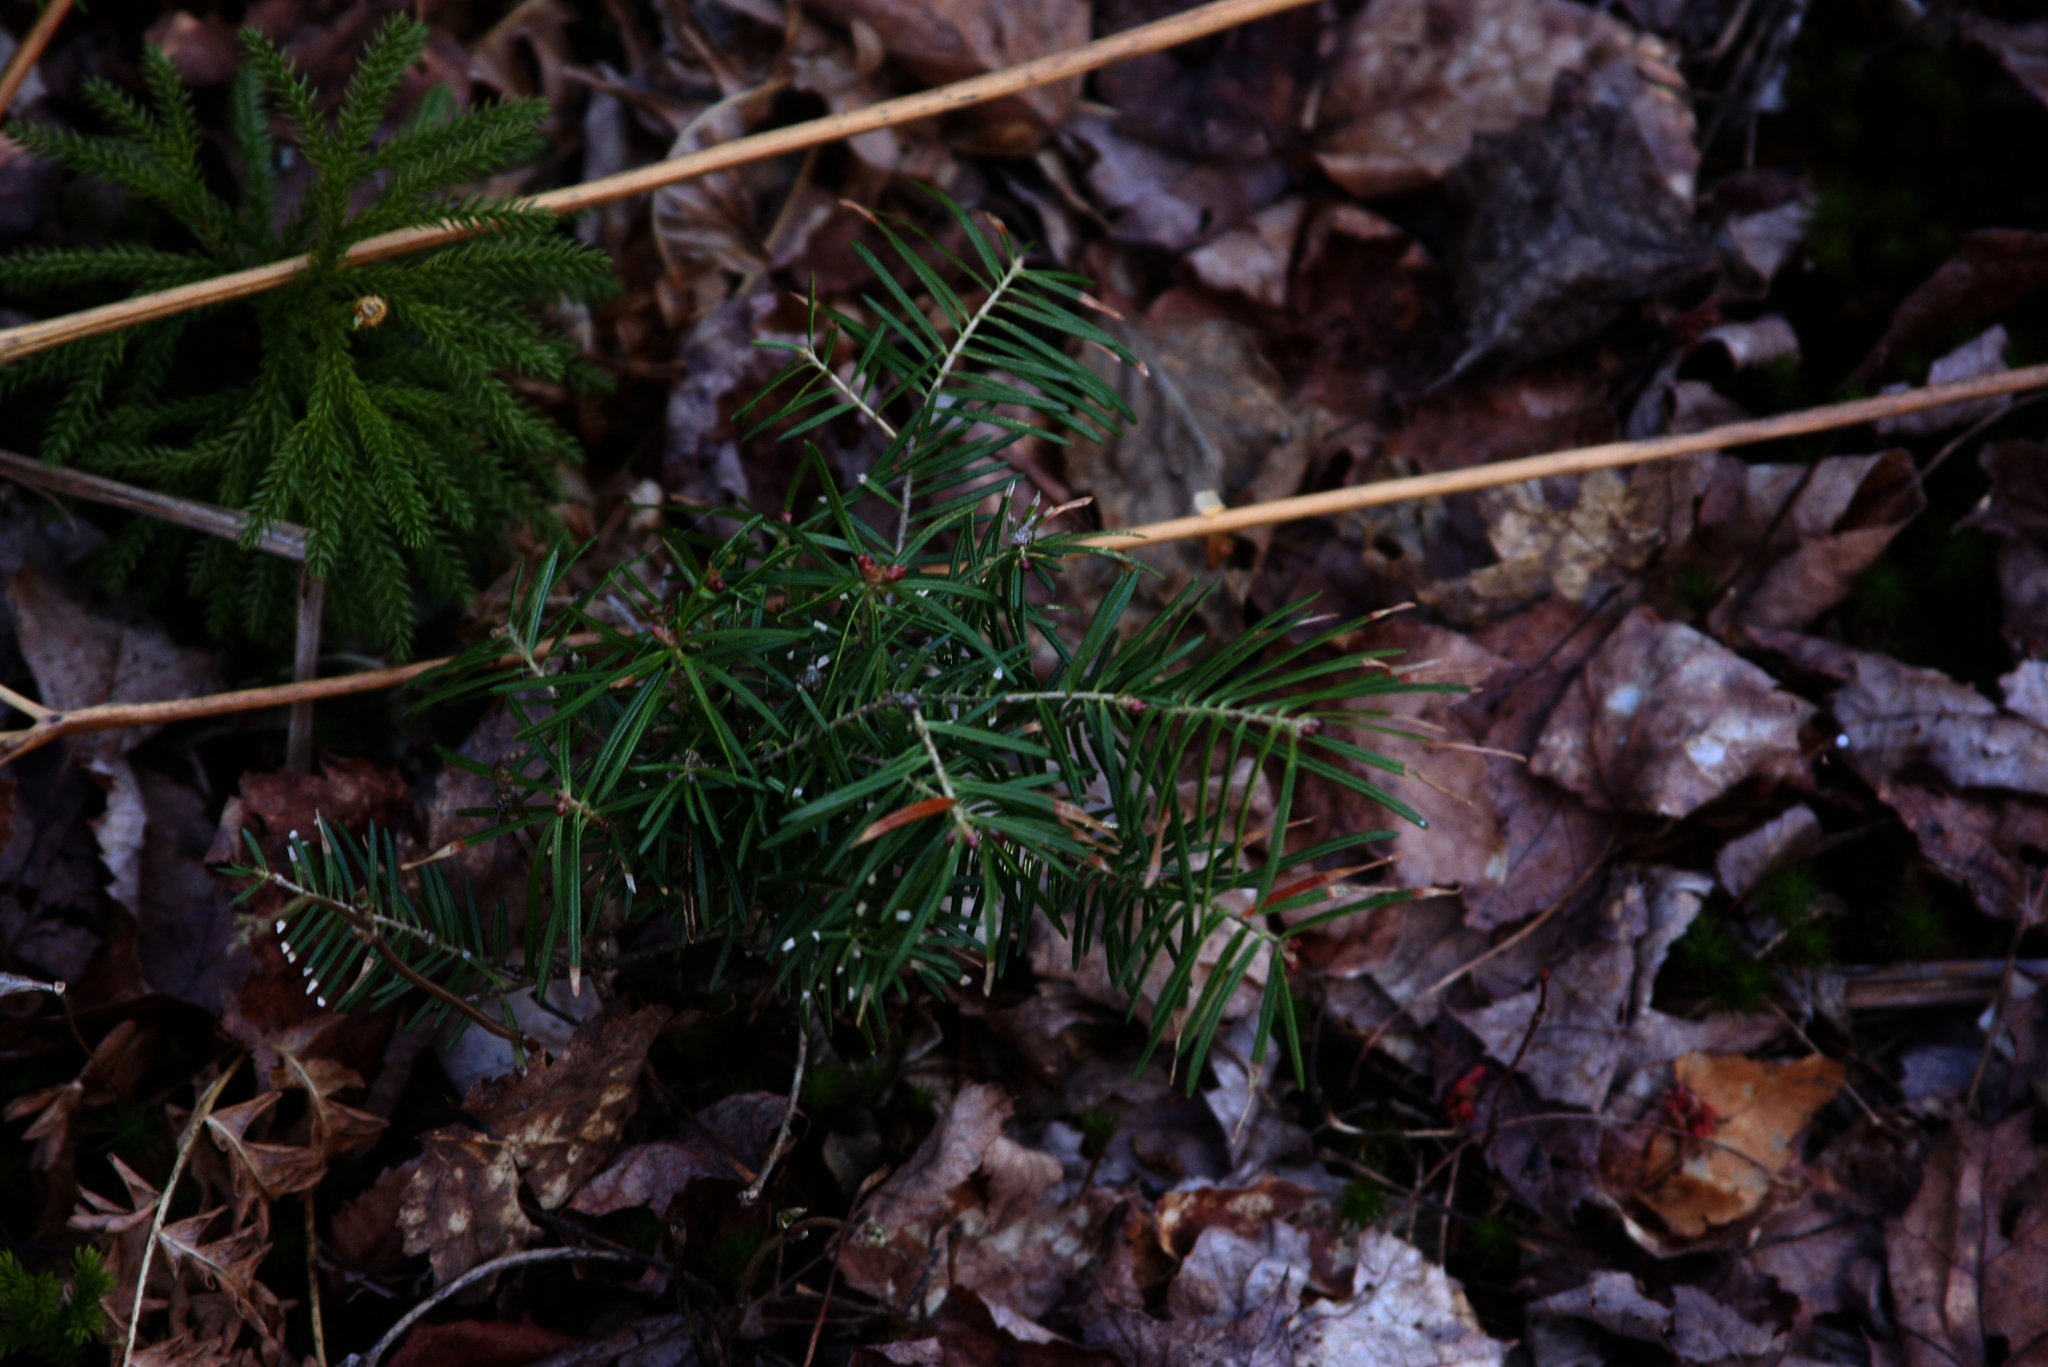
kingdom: Plantae
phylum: Tracheophyta
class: Pinopsida
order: Pinales
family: Pinaceae
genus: Abies
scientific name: Abies balsamea
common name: Balsam fir
